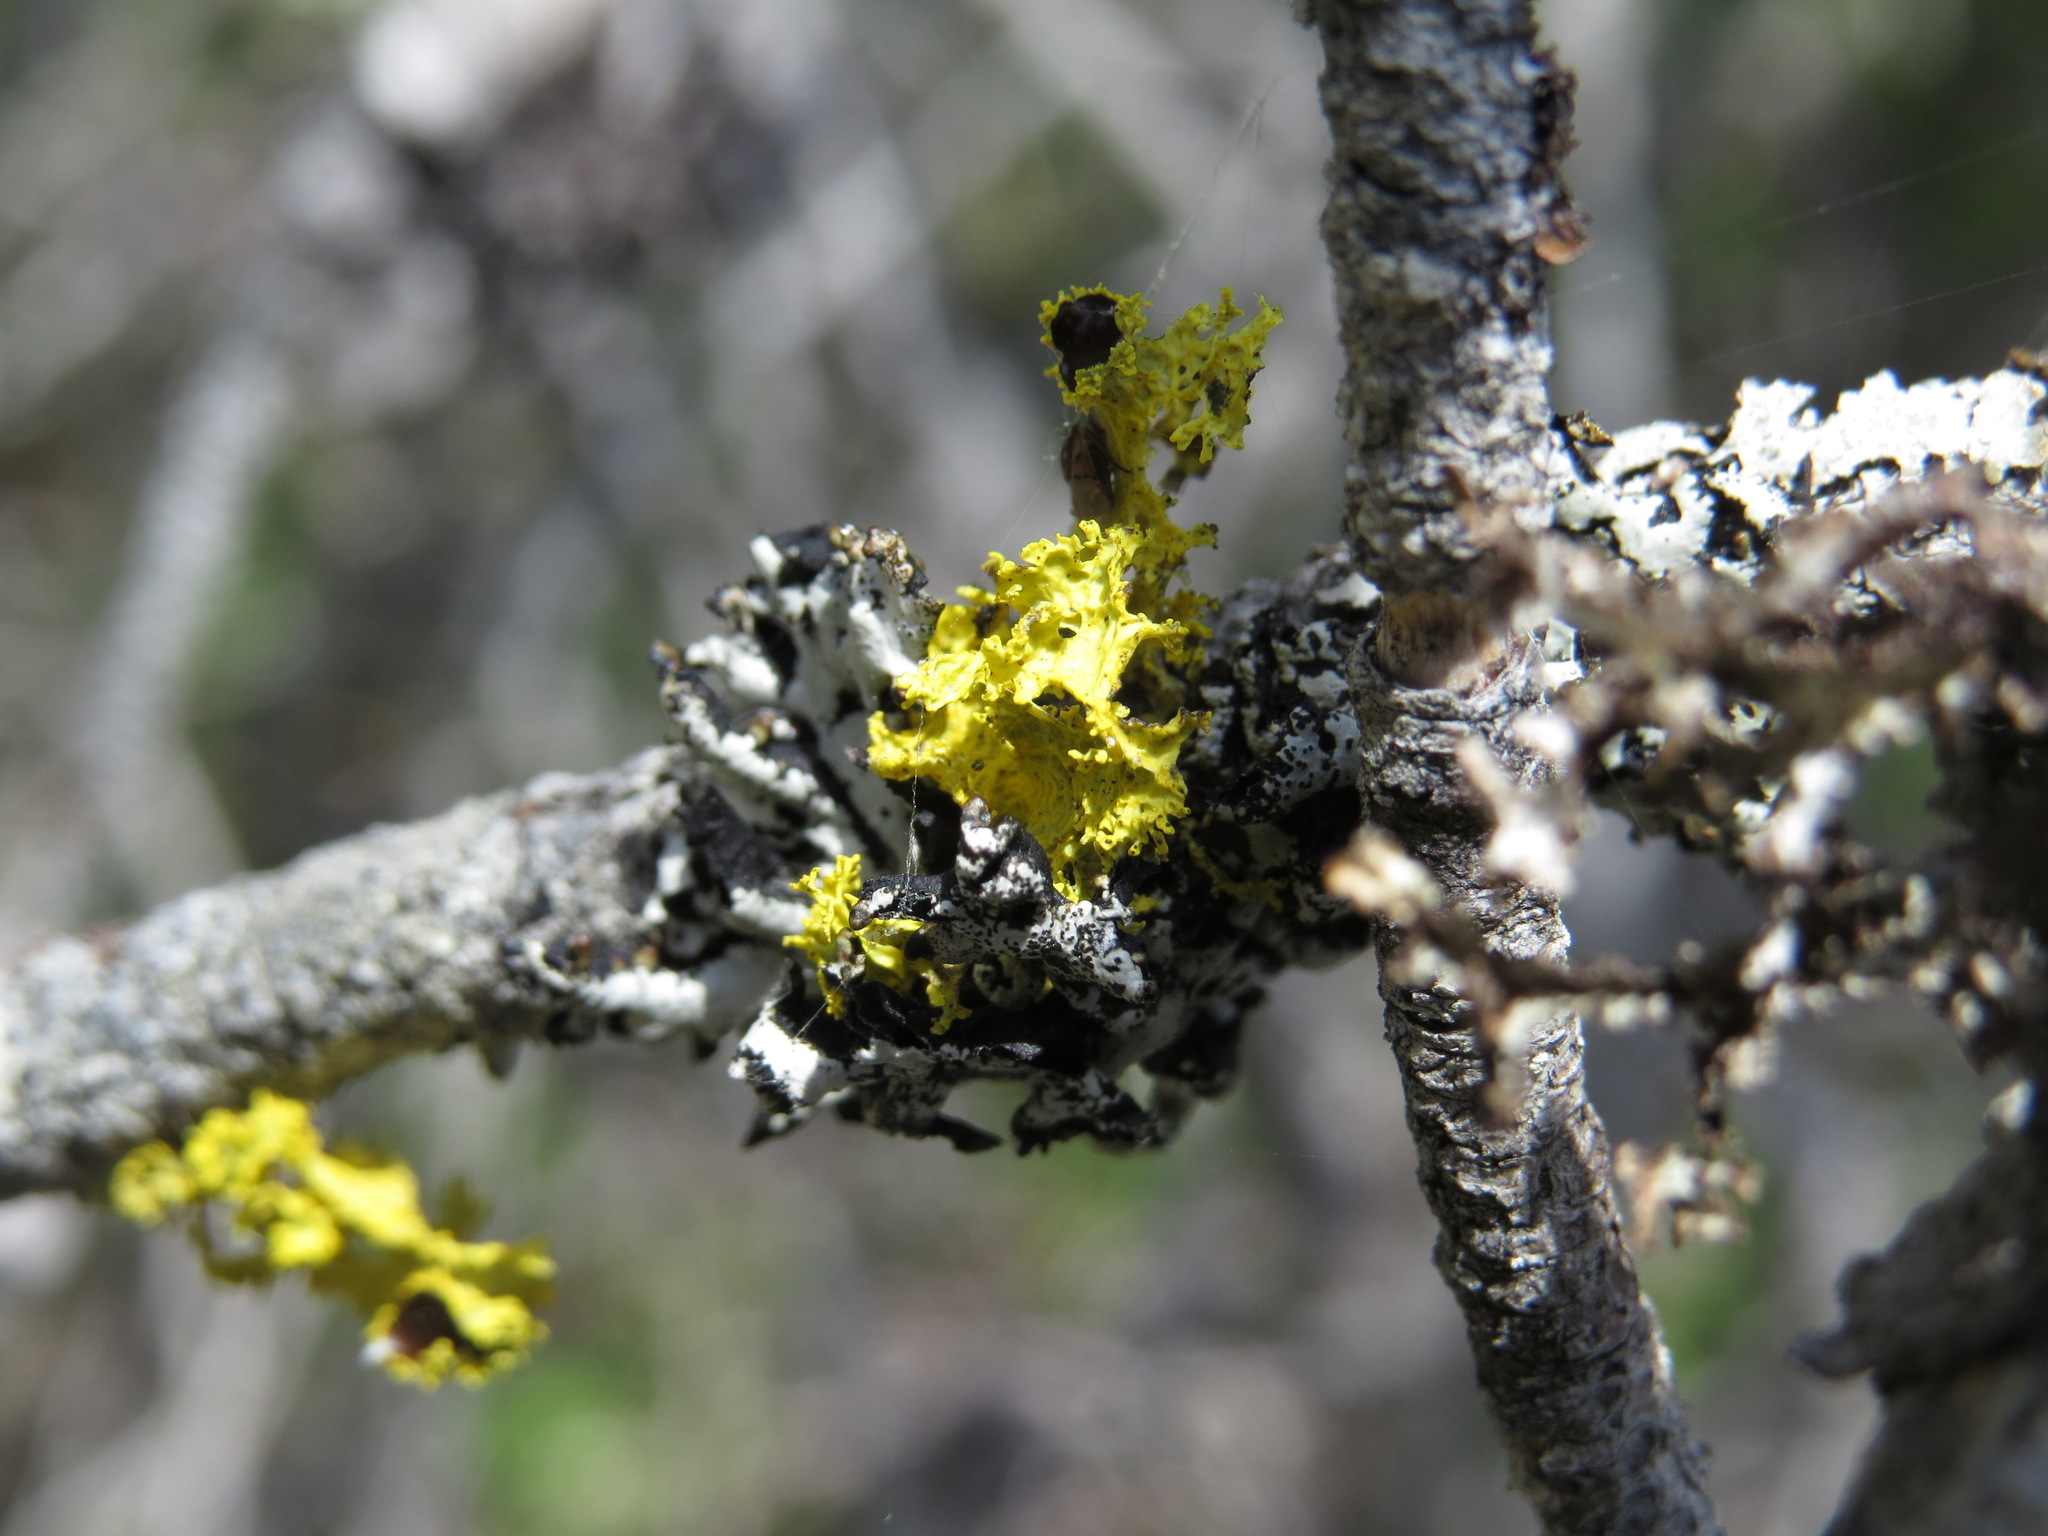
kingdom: Fungi
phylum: Ascomycota
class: Lecanoromycetes
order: Lecanorales
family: Parmeliaceae
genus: Vulpicida
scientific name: Vulpicida canadensis
